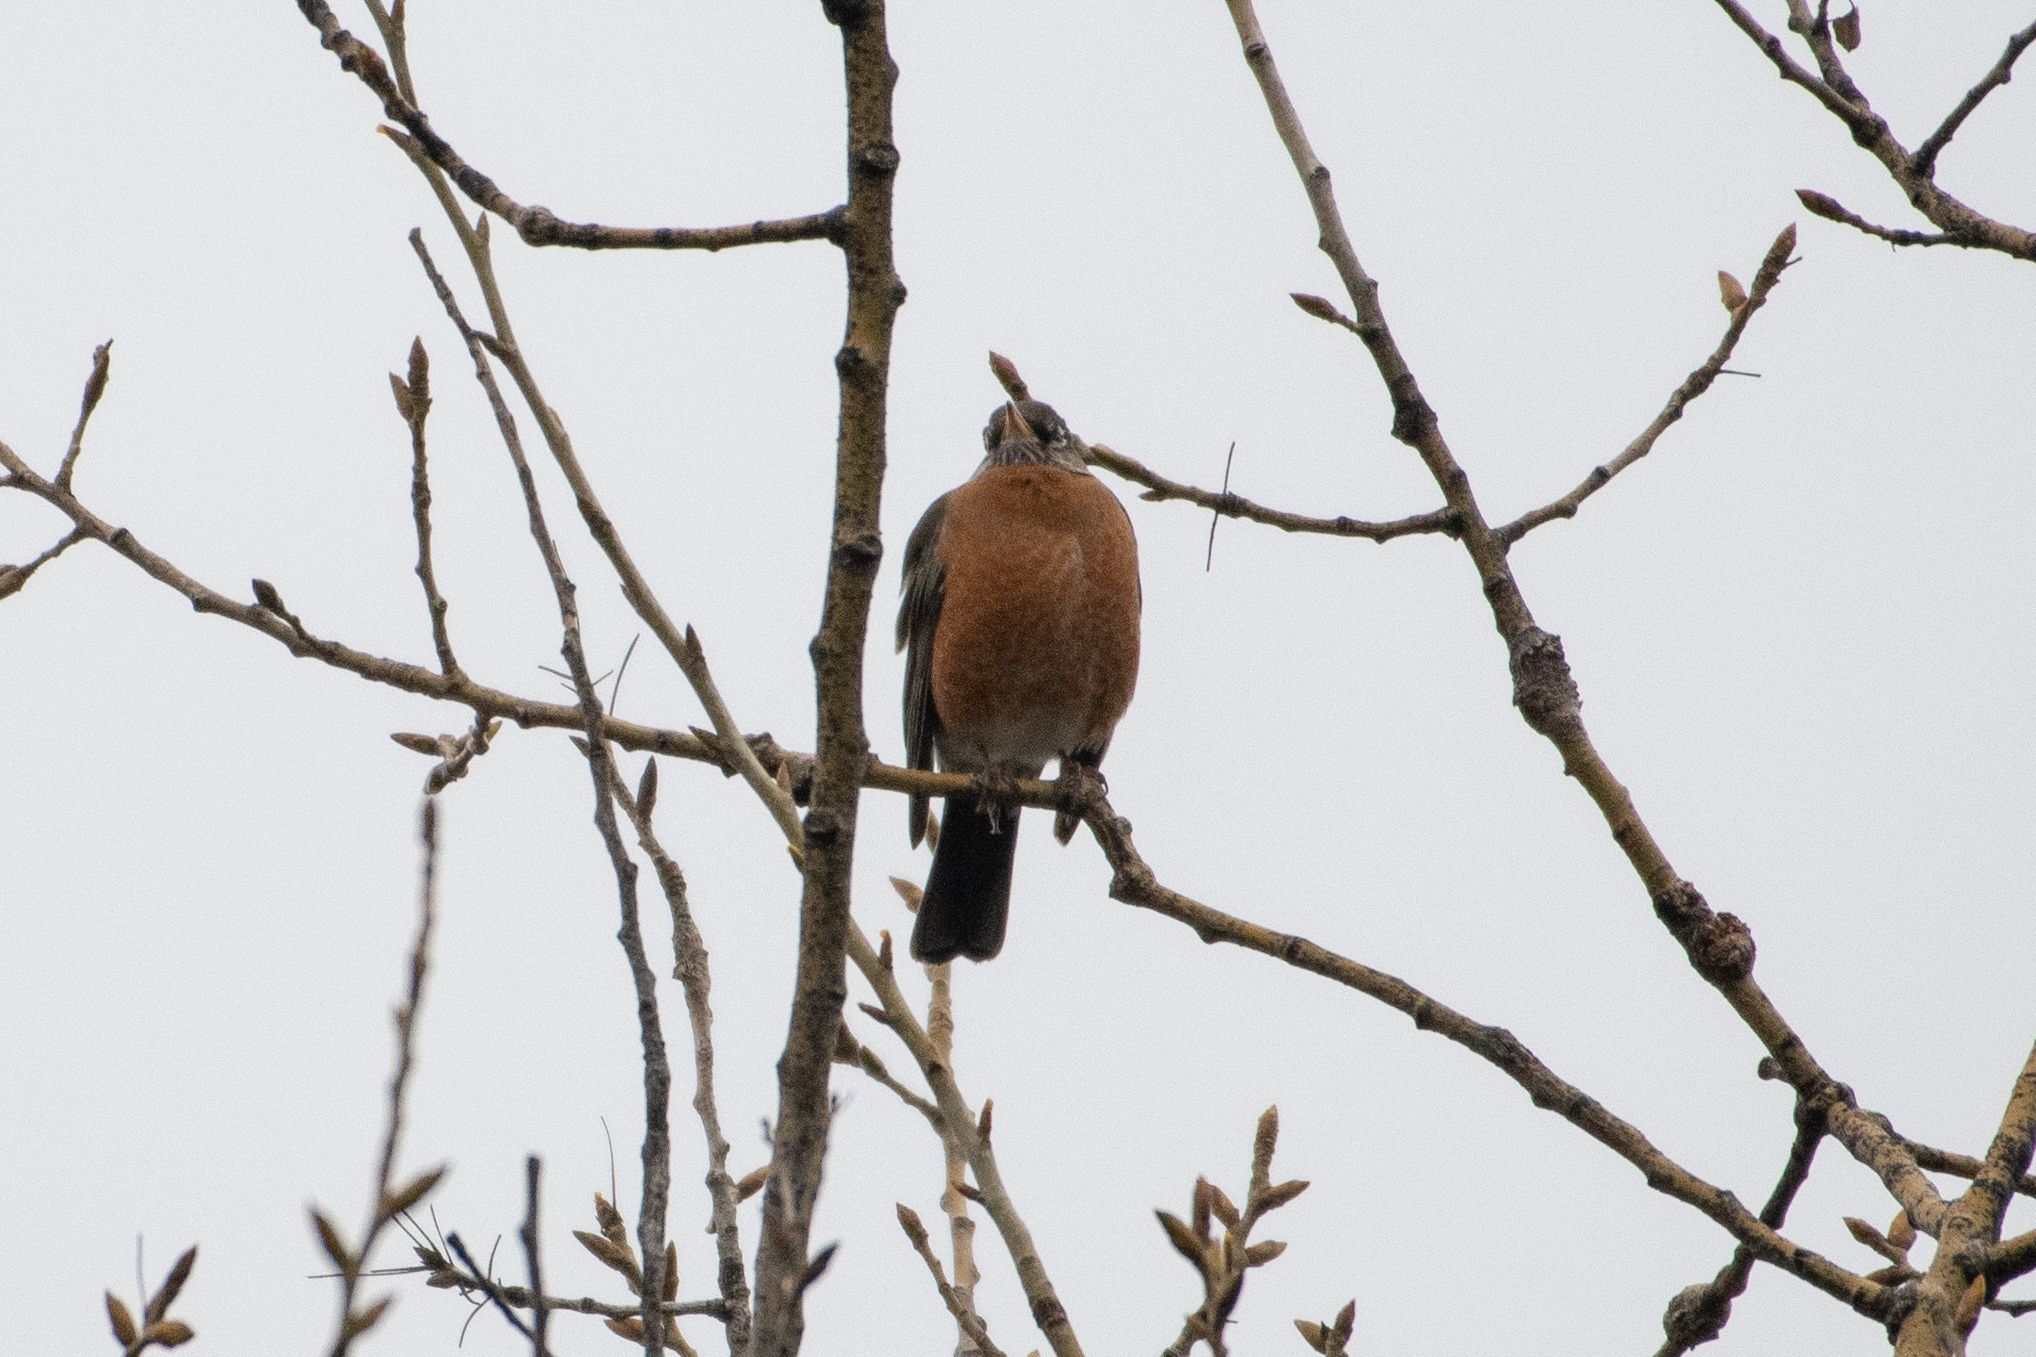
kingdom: Animalia
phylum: Chordata
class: Aves
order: Passeriformes
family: Turdidae
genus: Turdus
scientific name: Turdus migratorius
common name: American robin
